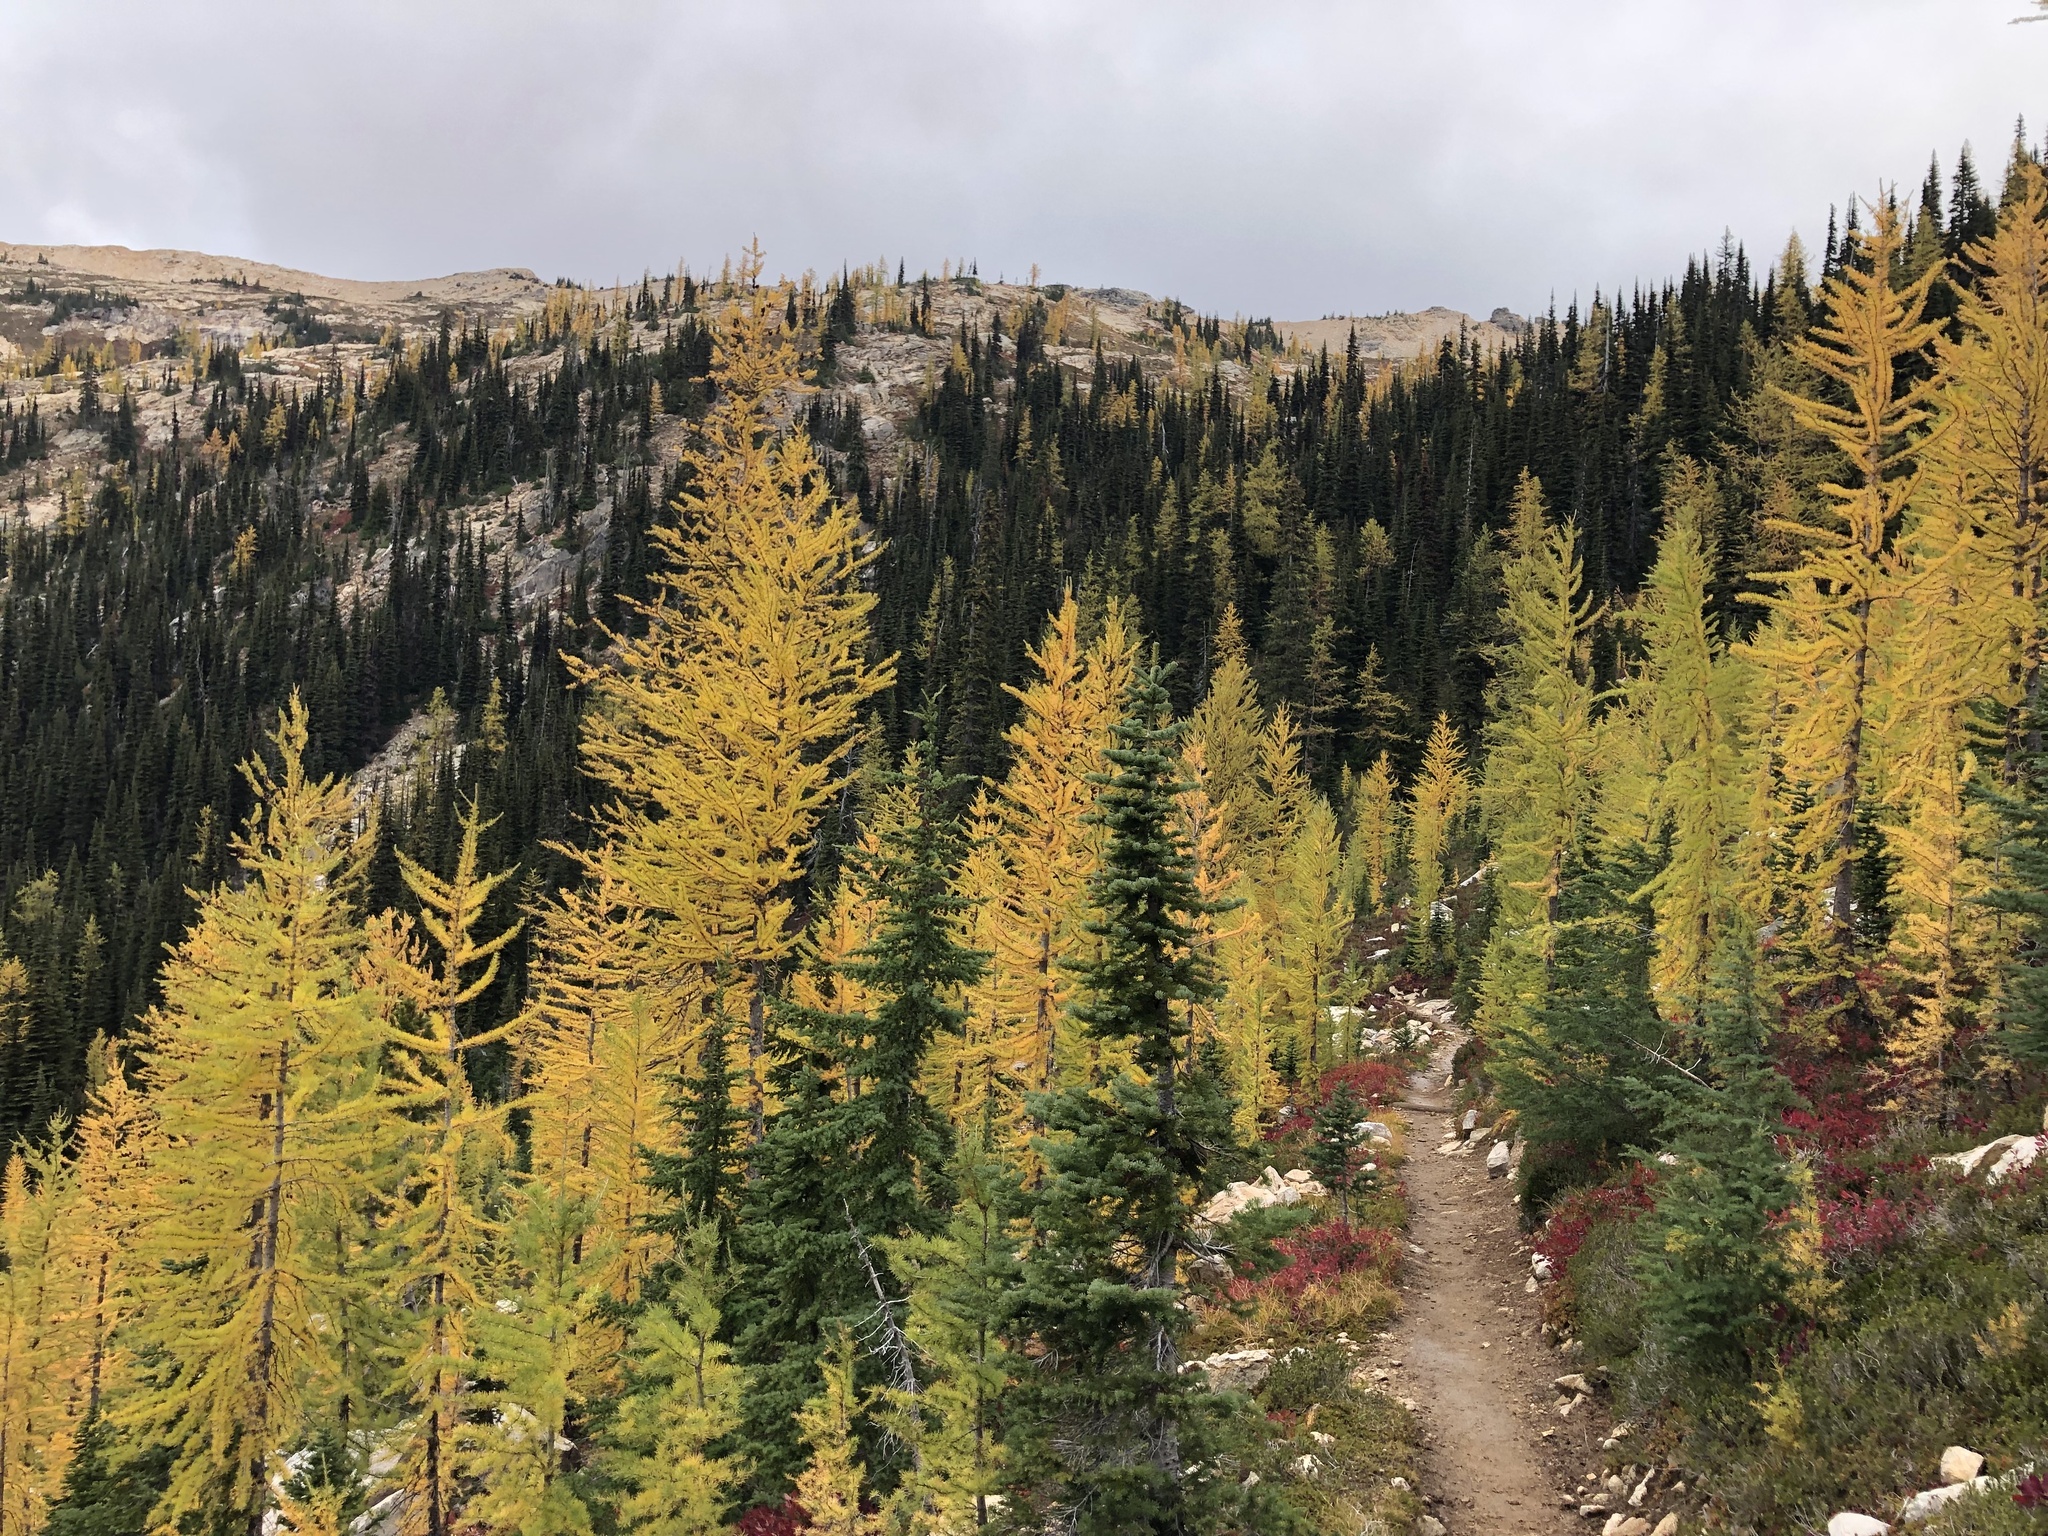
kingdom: Plantae
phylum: Tracheophyta
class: Pinopsida
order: Pinales
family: Pinaceae
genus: Tsuga
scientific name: Tsuga mertensiana
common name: Mountain hemlock
